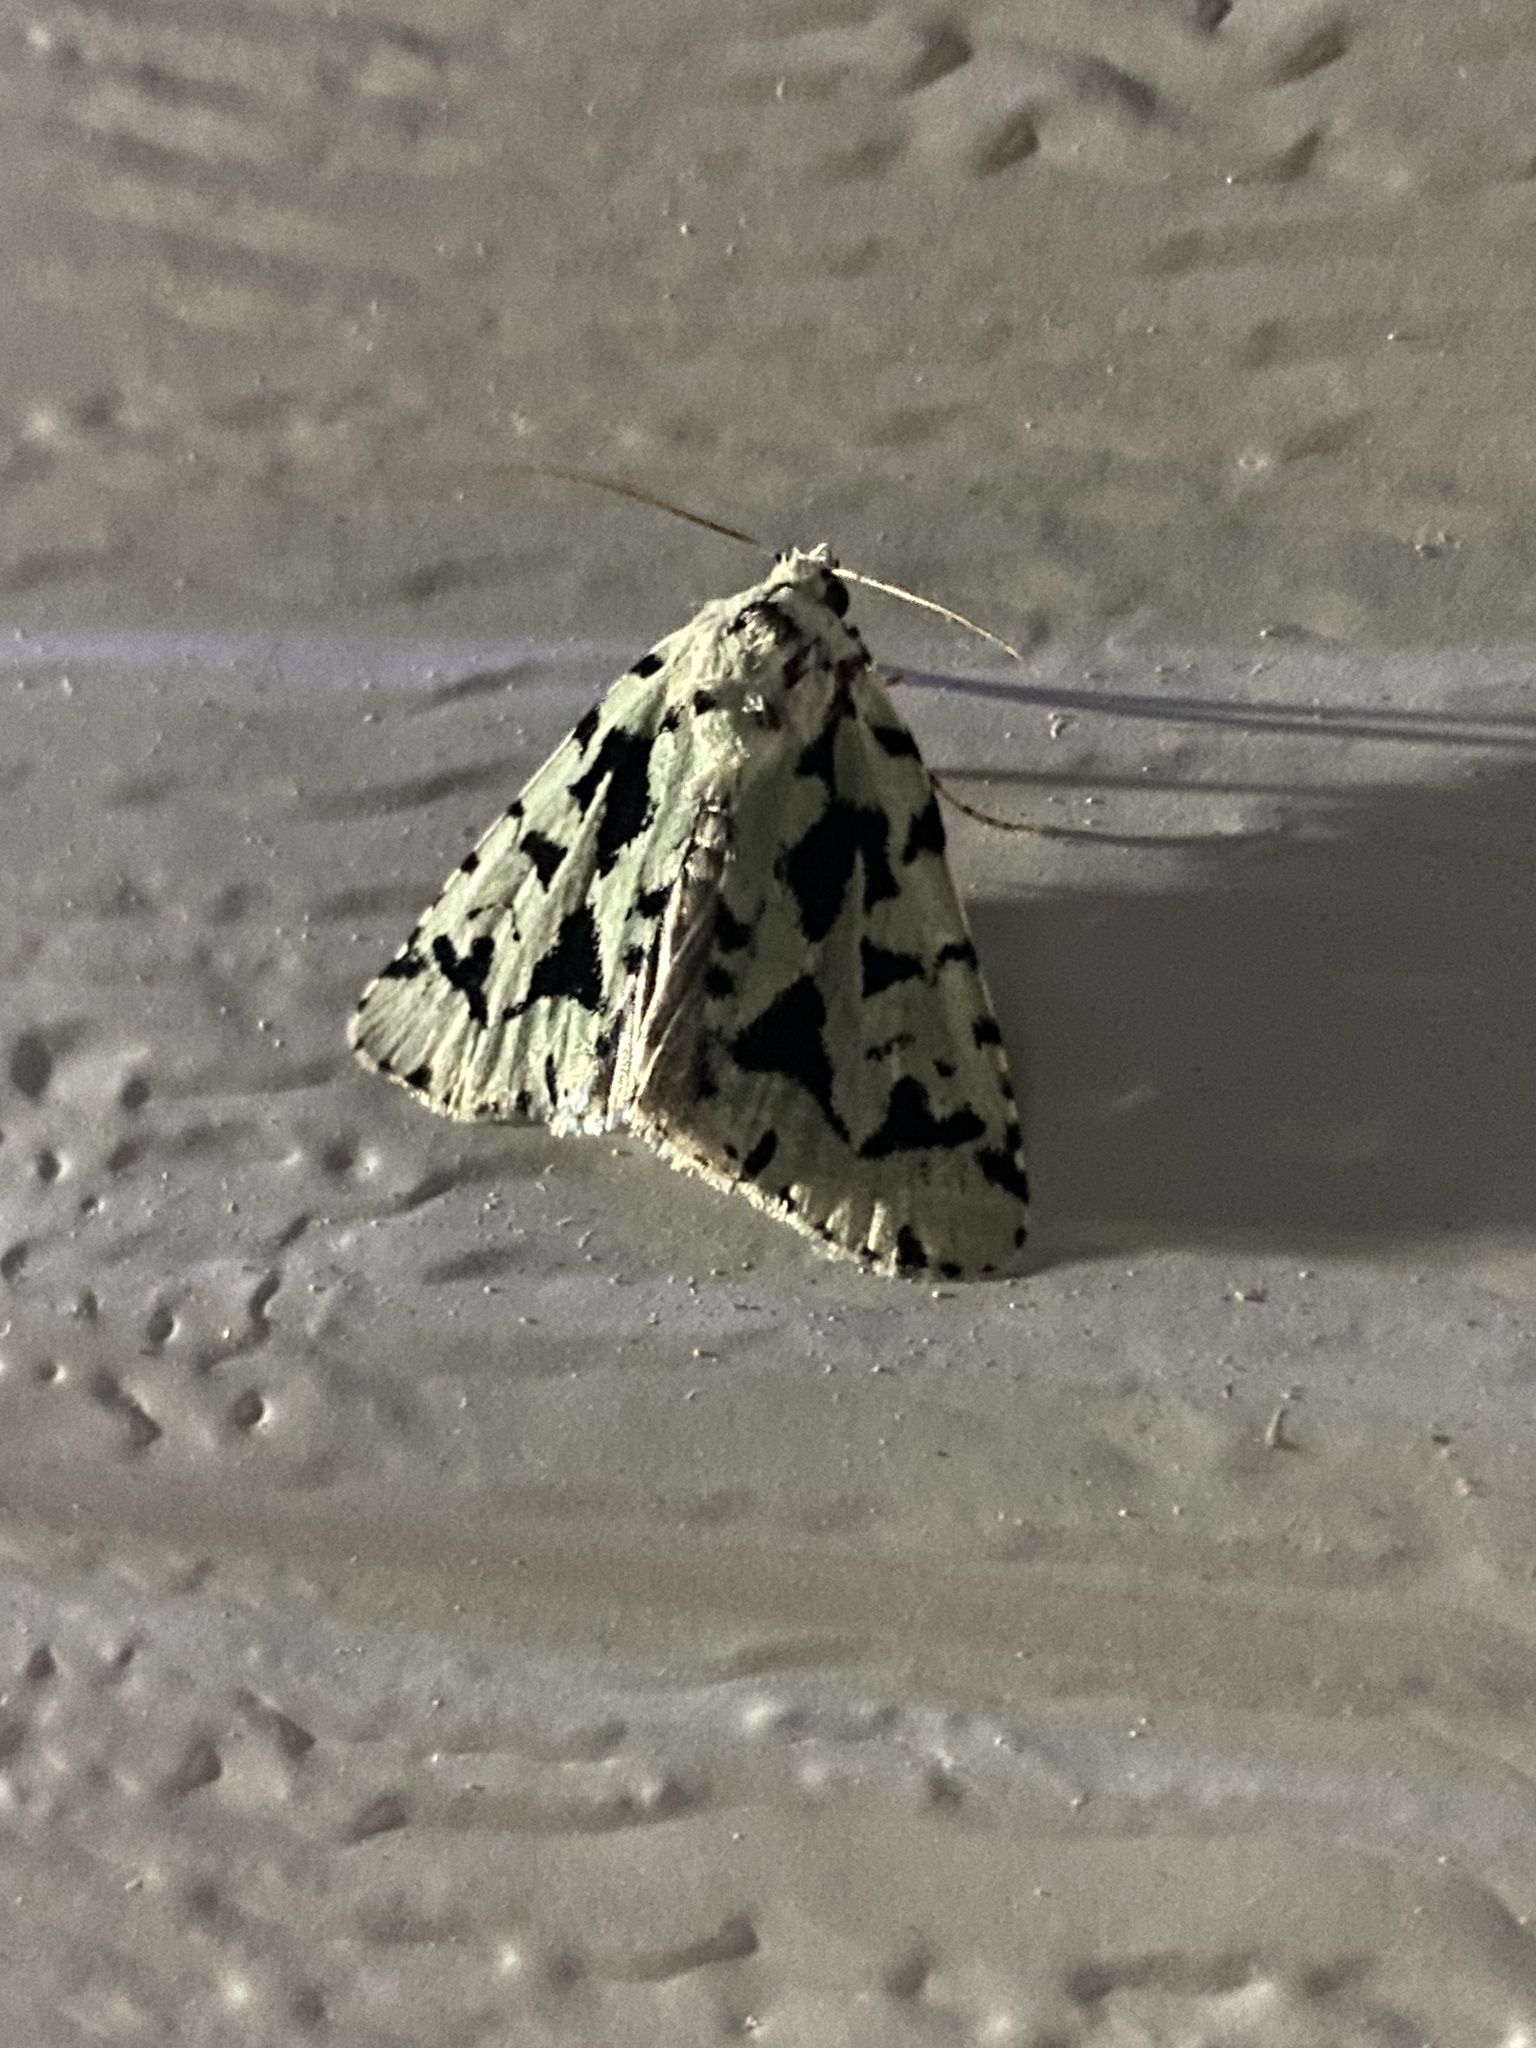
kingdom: Animalia
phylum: Arthropoda
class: Insecta
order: Lepidoptera
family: Noctuidae
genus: Acronicta
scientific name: Acronicta fallax
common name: Green marvel
